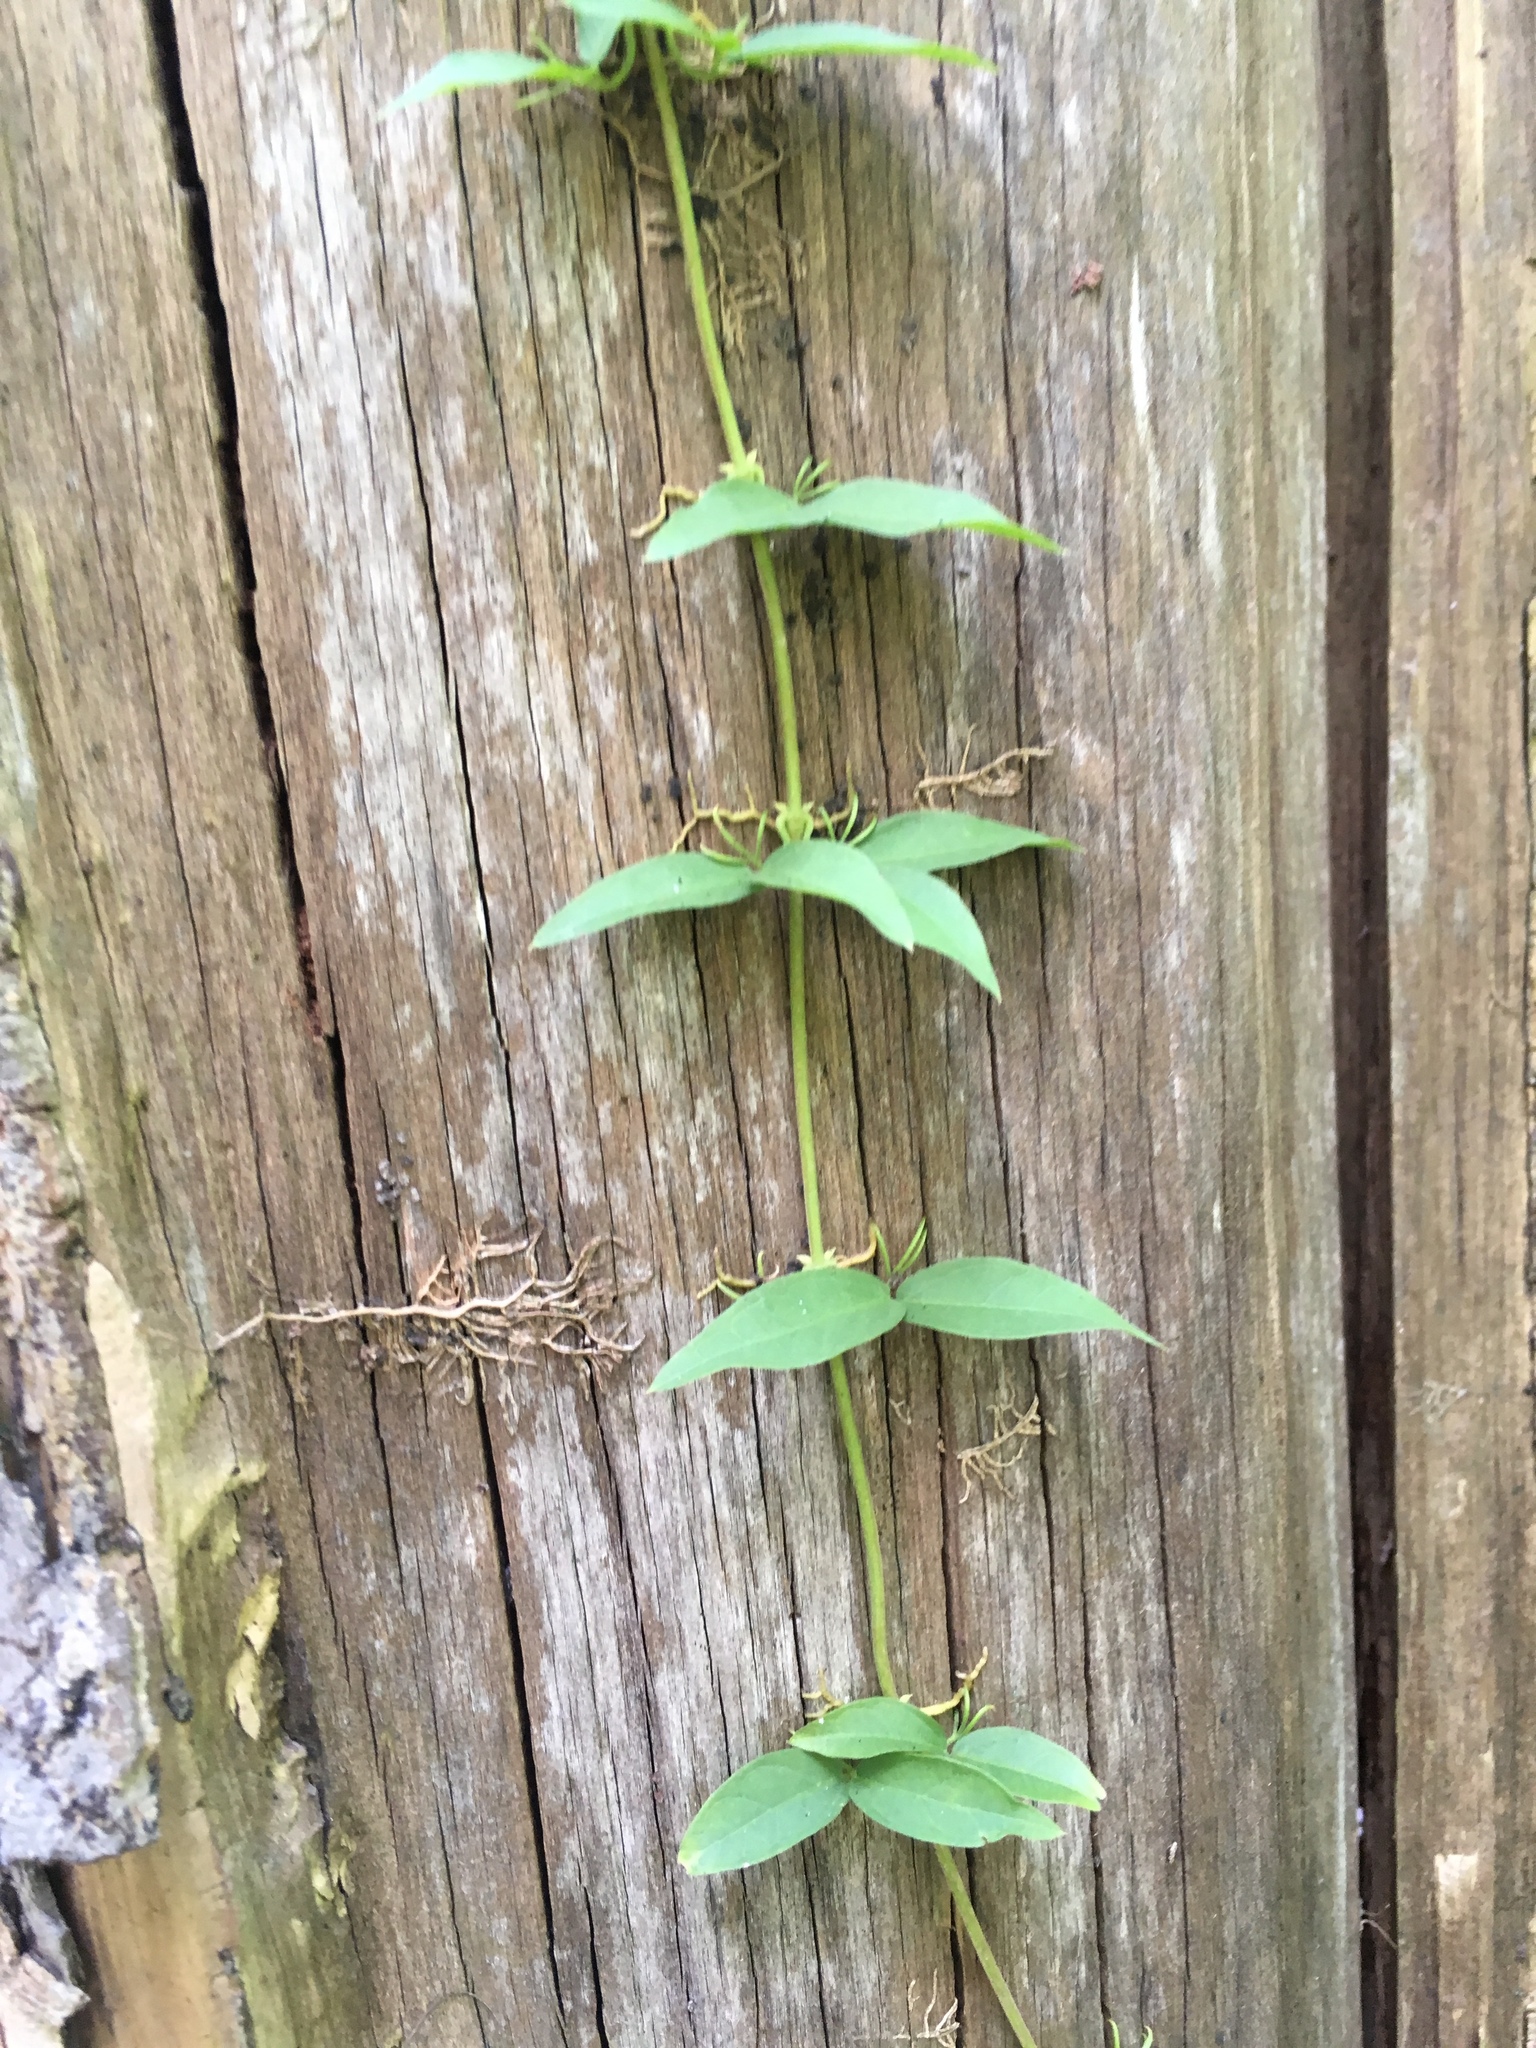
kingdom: Plantae
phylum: Tracheophyta
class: Magnoliopsida
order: Lamiales
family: Bignoniaceae
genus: Dolichandra
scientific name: Dolichandra unguis-cati
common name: Catclaw vine
